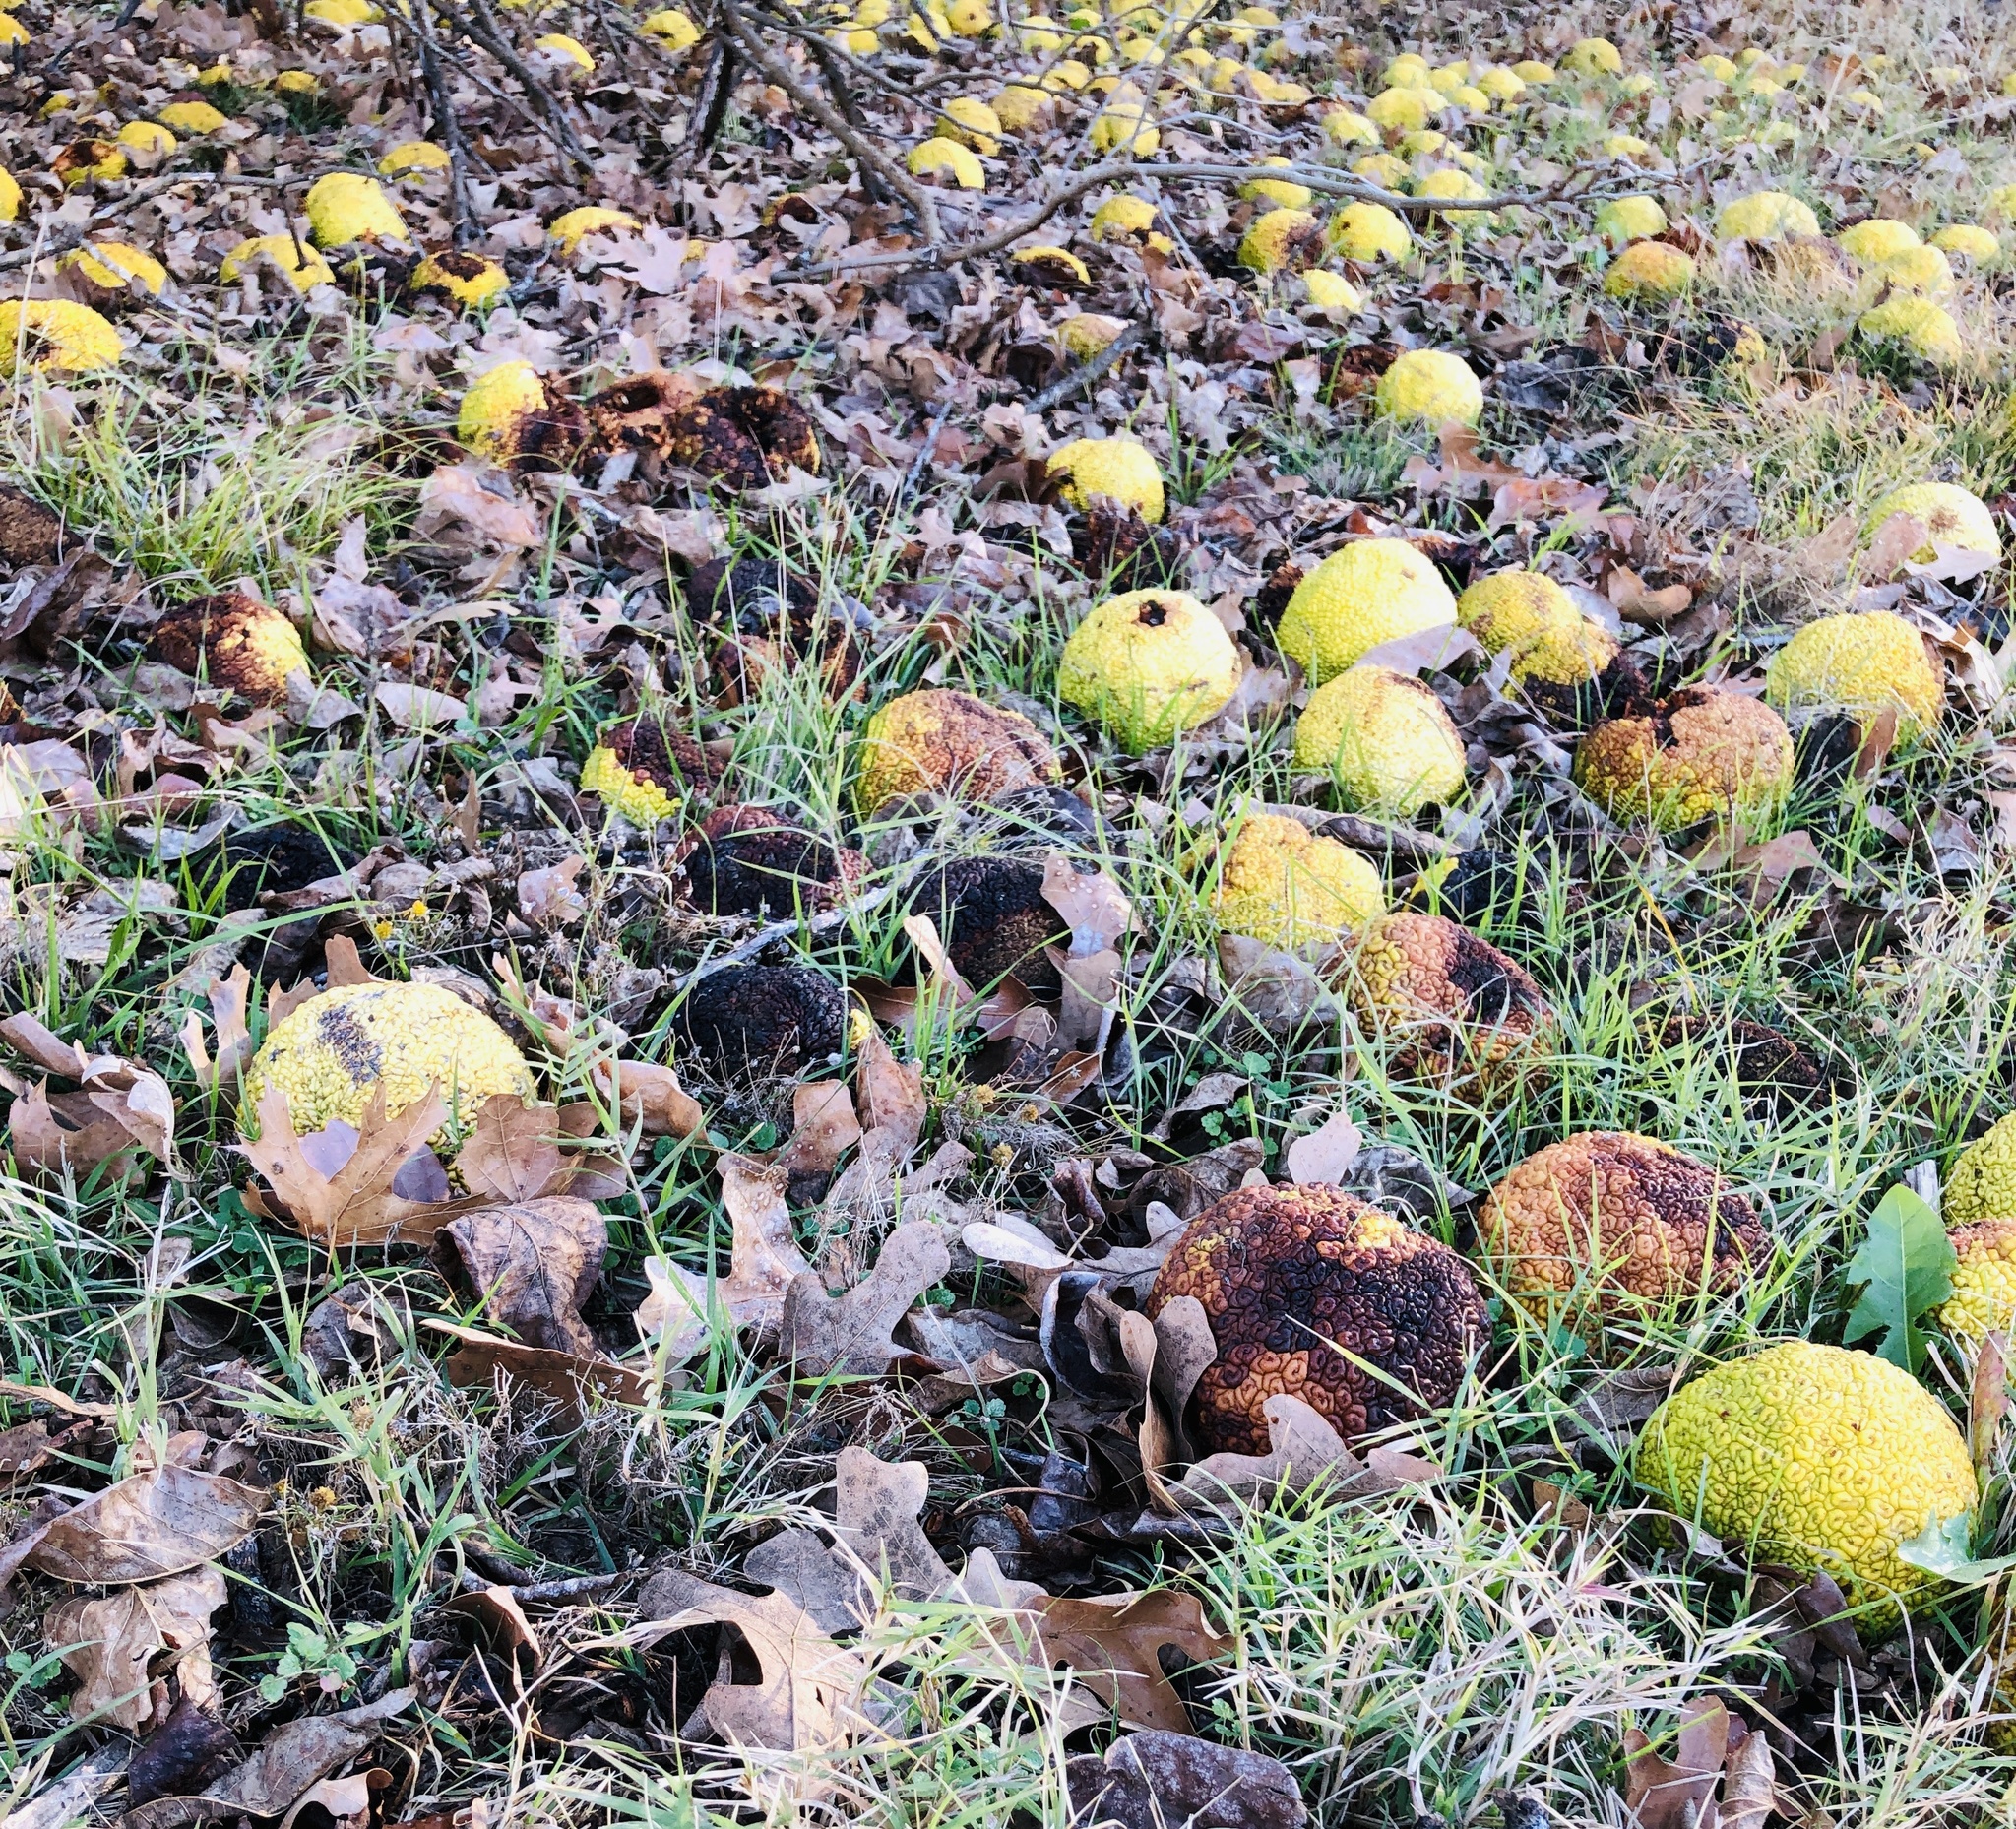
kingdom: Plantae
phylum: Tracheophyta
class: Magnoliopsida
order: Rosales
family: Moraceae
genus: Maclura
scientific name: Maclura pomifera
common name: Osage-orange
